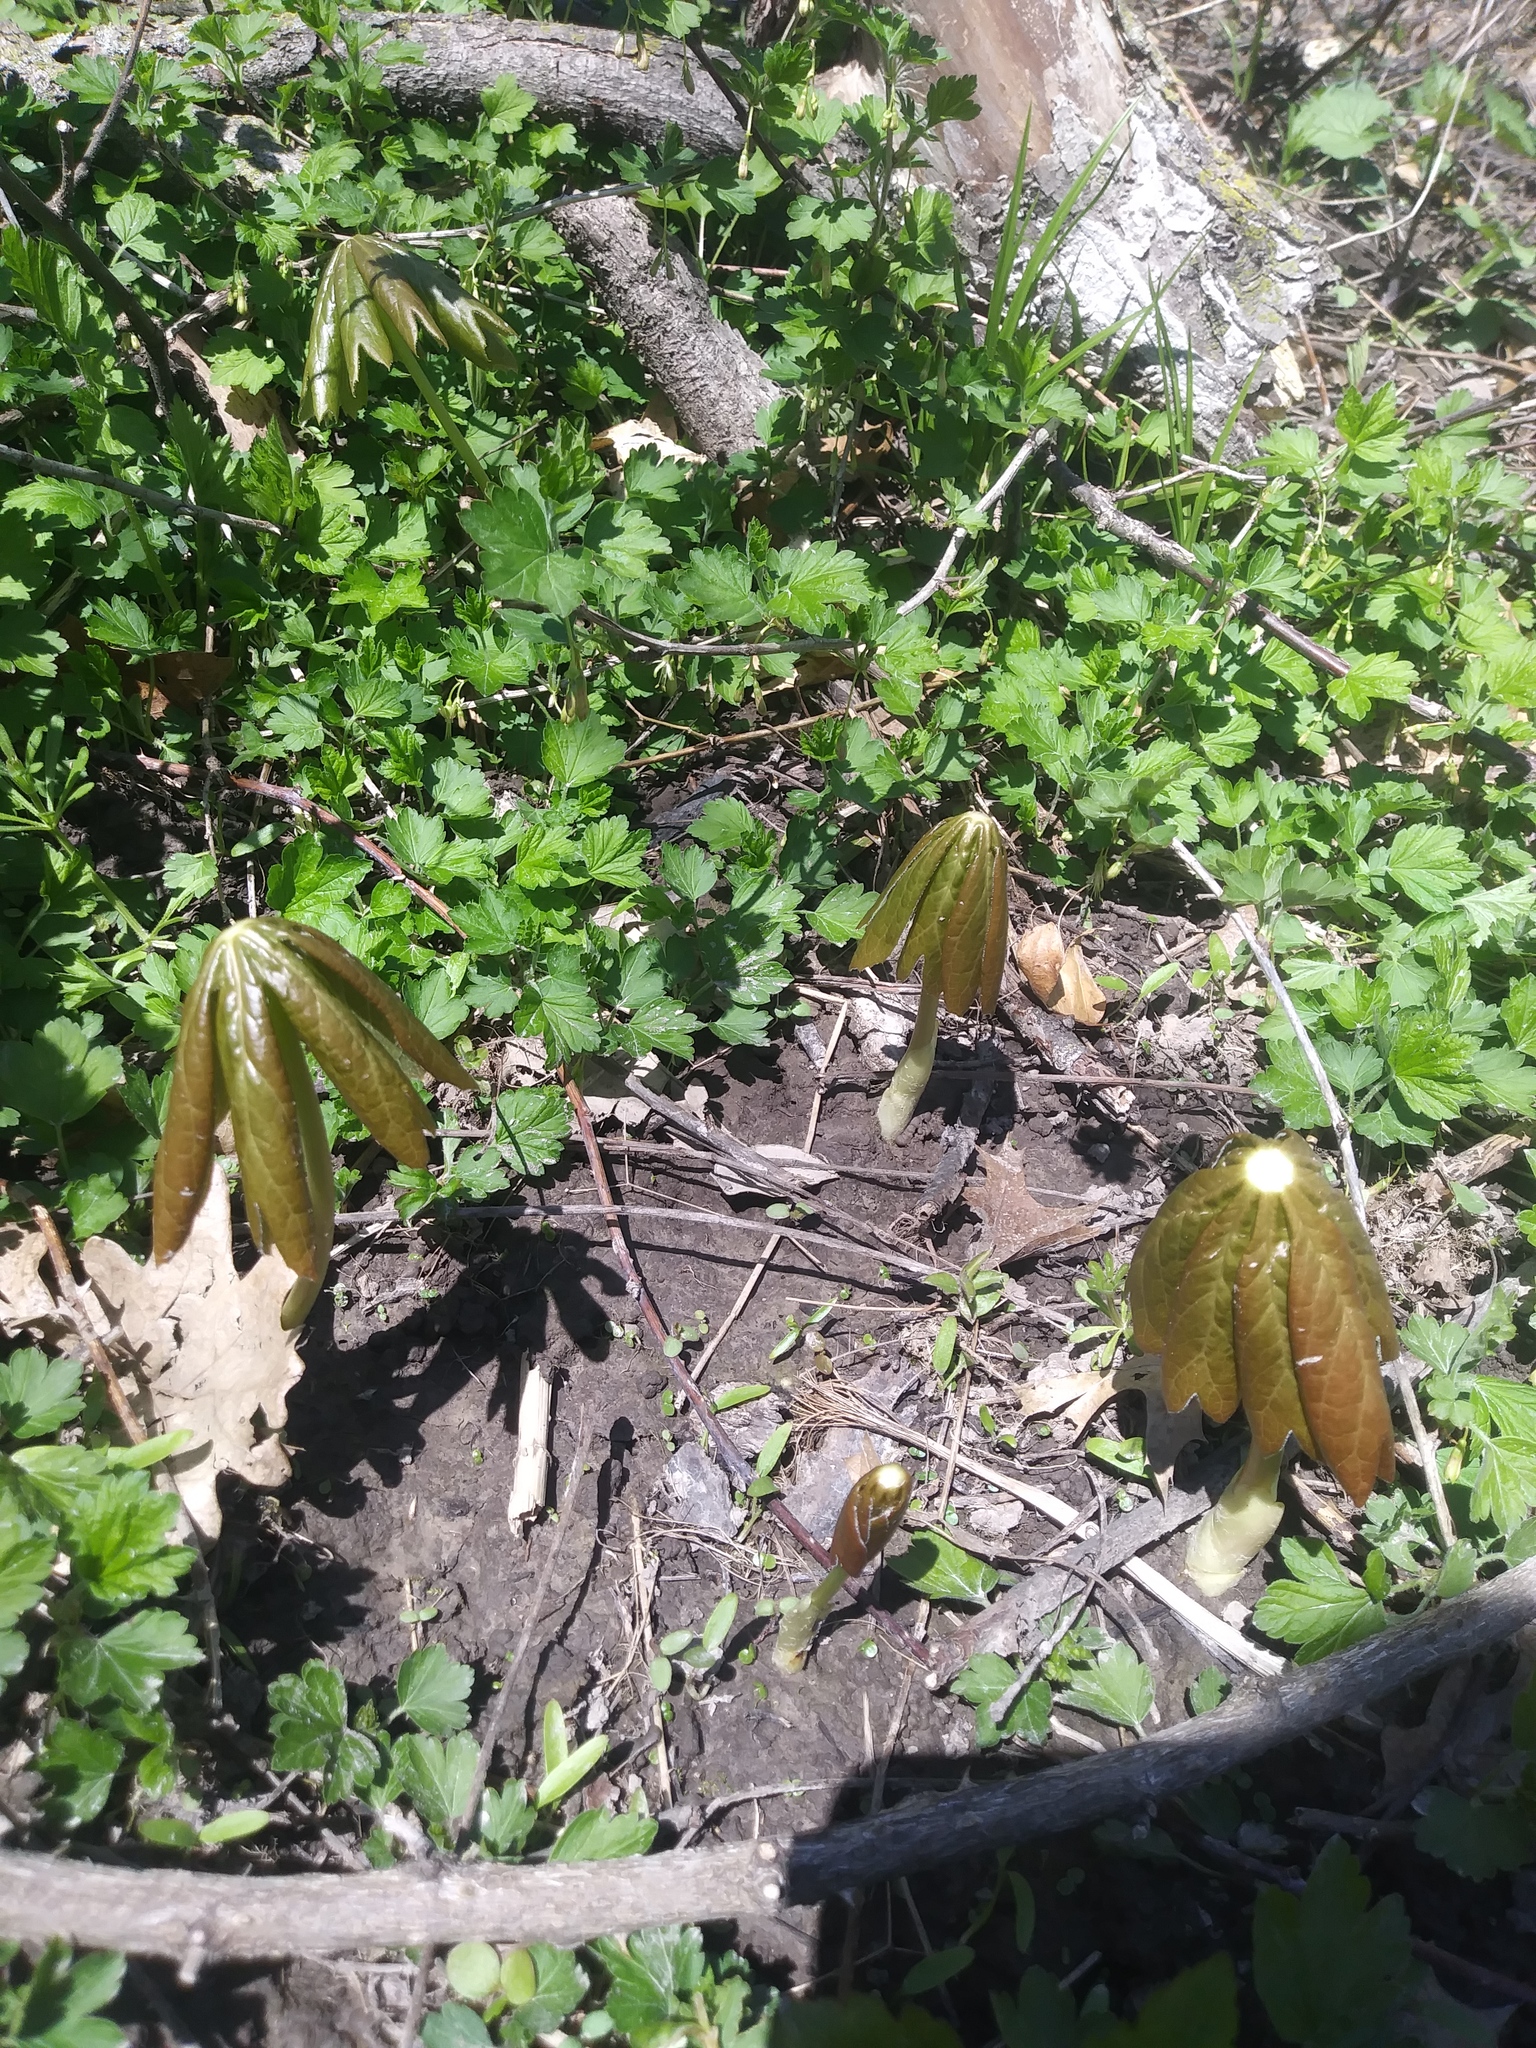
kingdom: Plantae
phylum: Tracheophyta
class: Magnoliopsida
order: Ranunculales
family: Berberidaceae
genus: Podophyllum
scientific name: Podophyllum peltatum
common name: Wild mandrake
